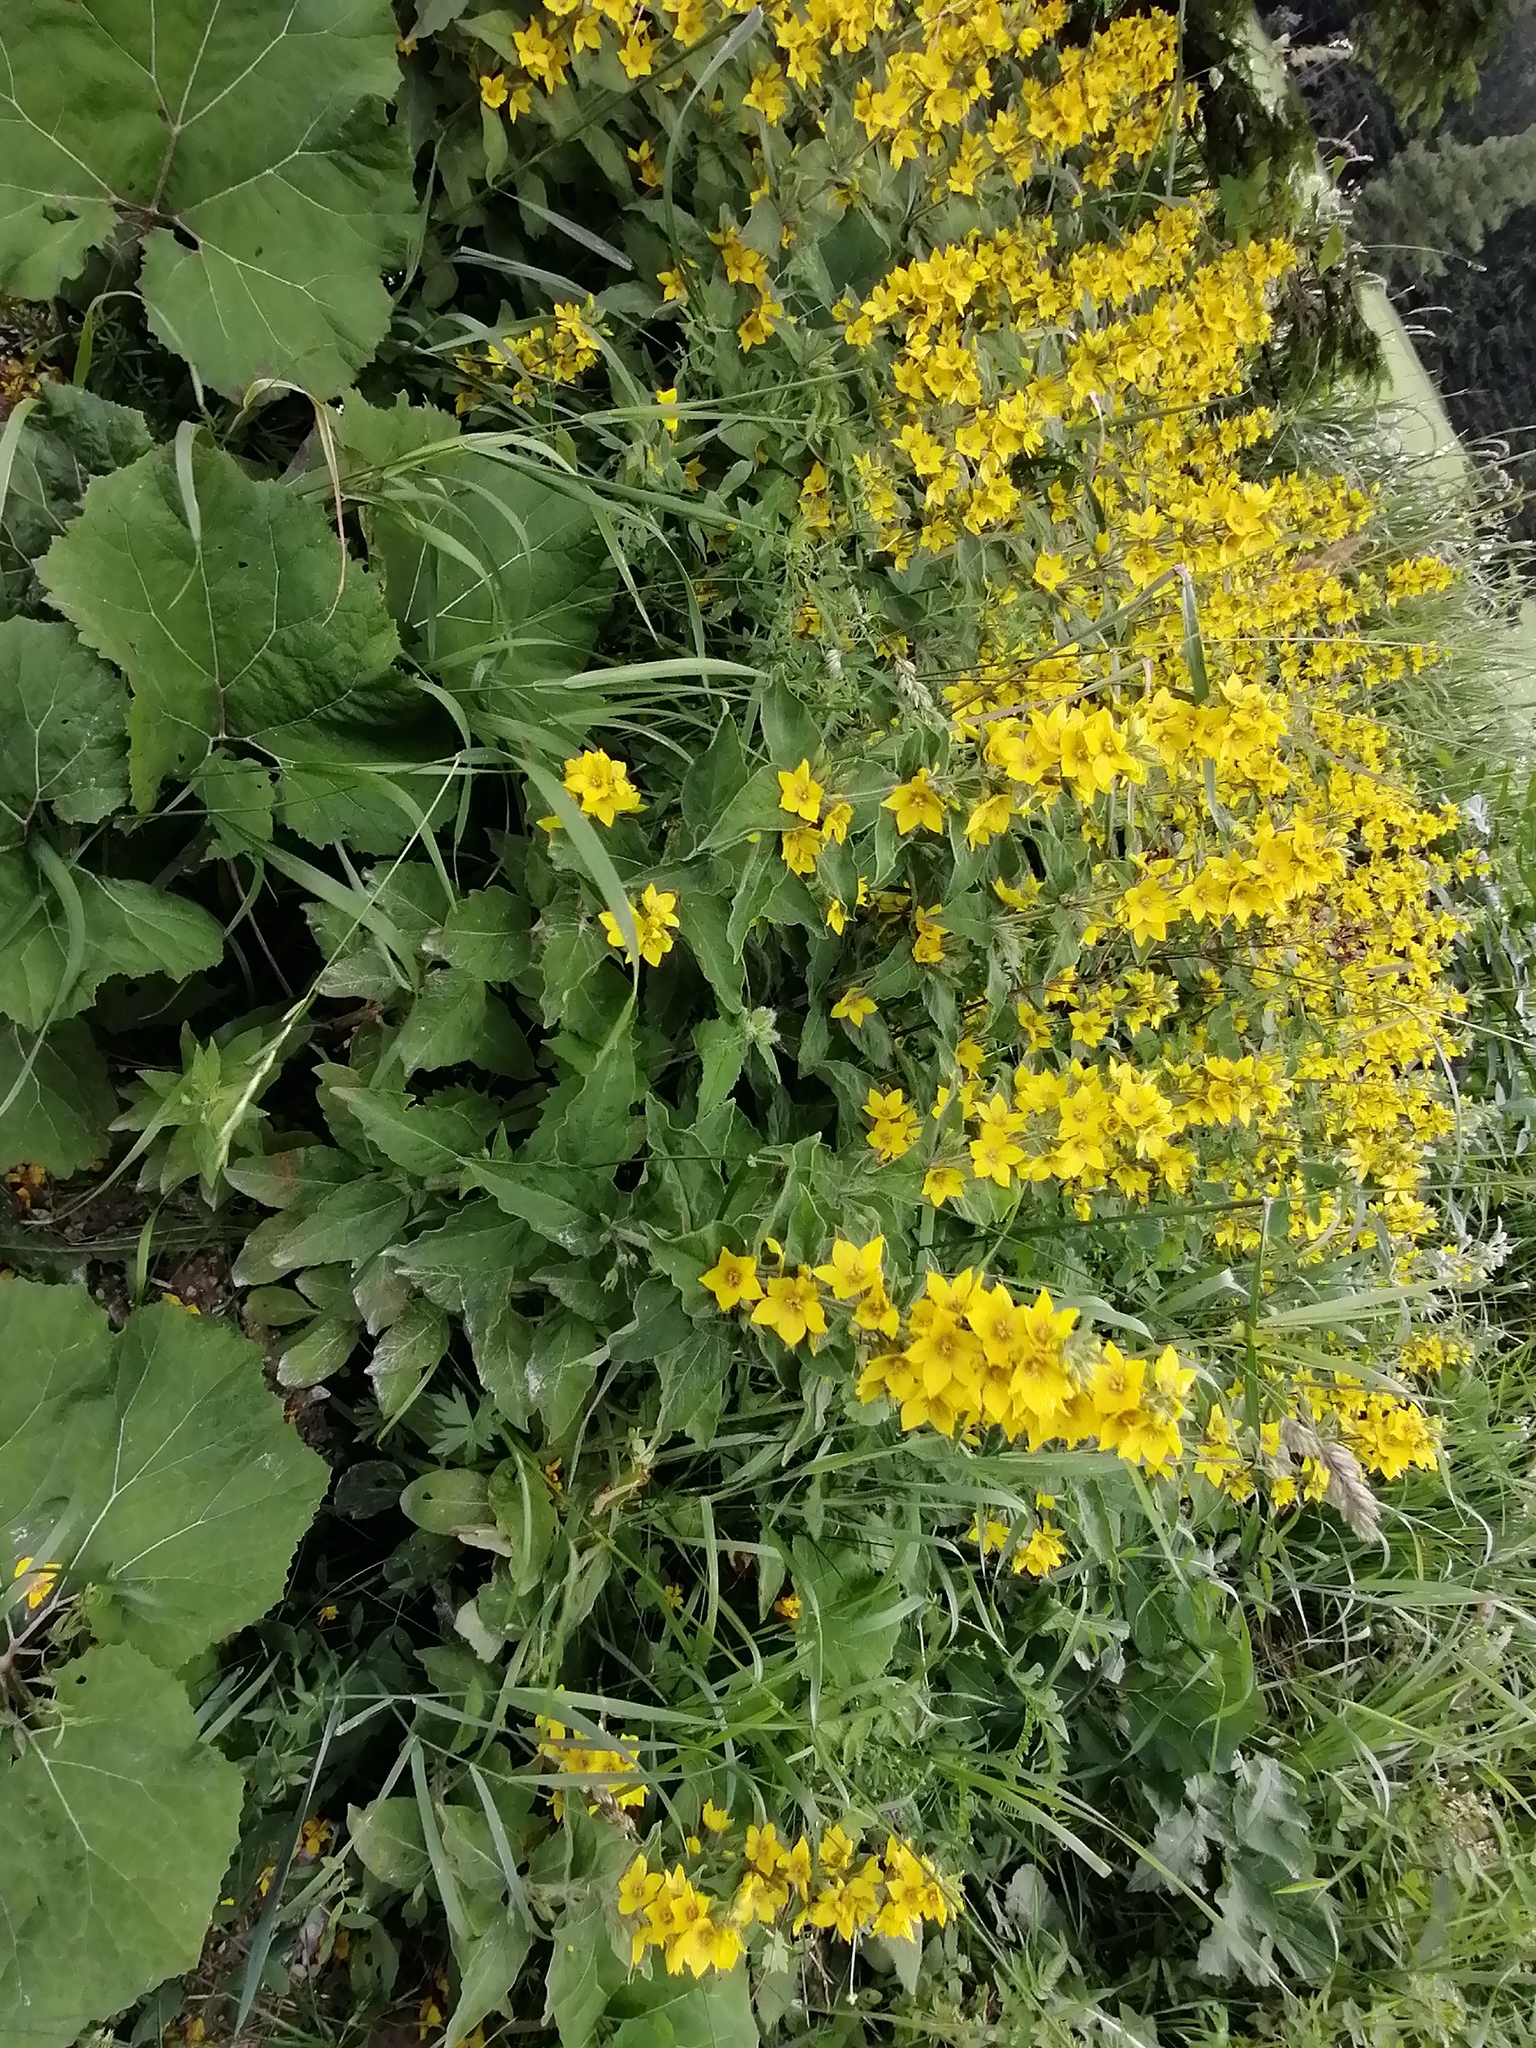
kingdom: Plantae
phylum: Tracheophyta
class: Magnoliopsida
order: Ericales
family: Primulaceae
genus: Lysimachia
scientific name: Lysimachia punctata
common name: Dotted loosestrife
